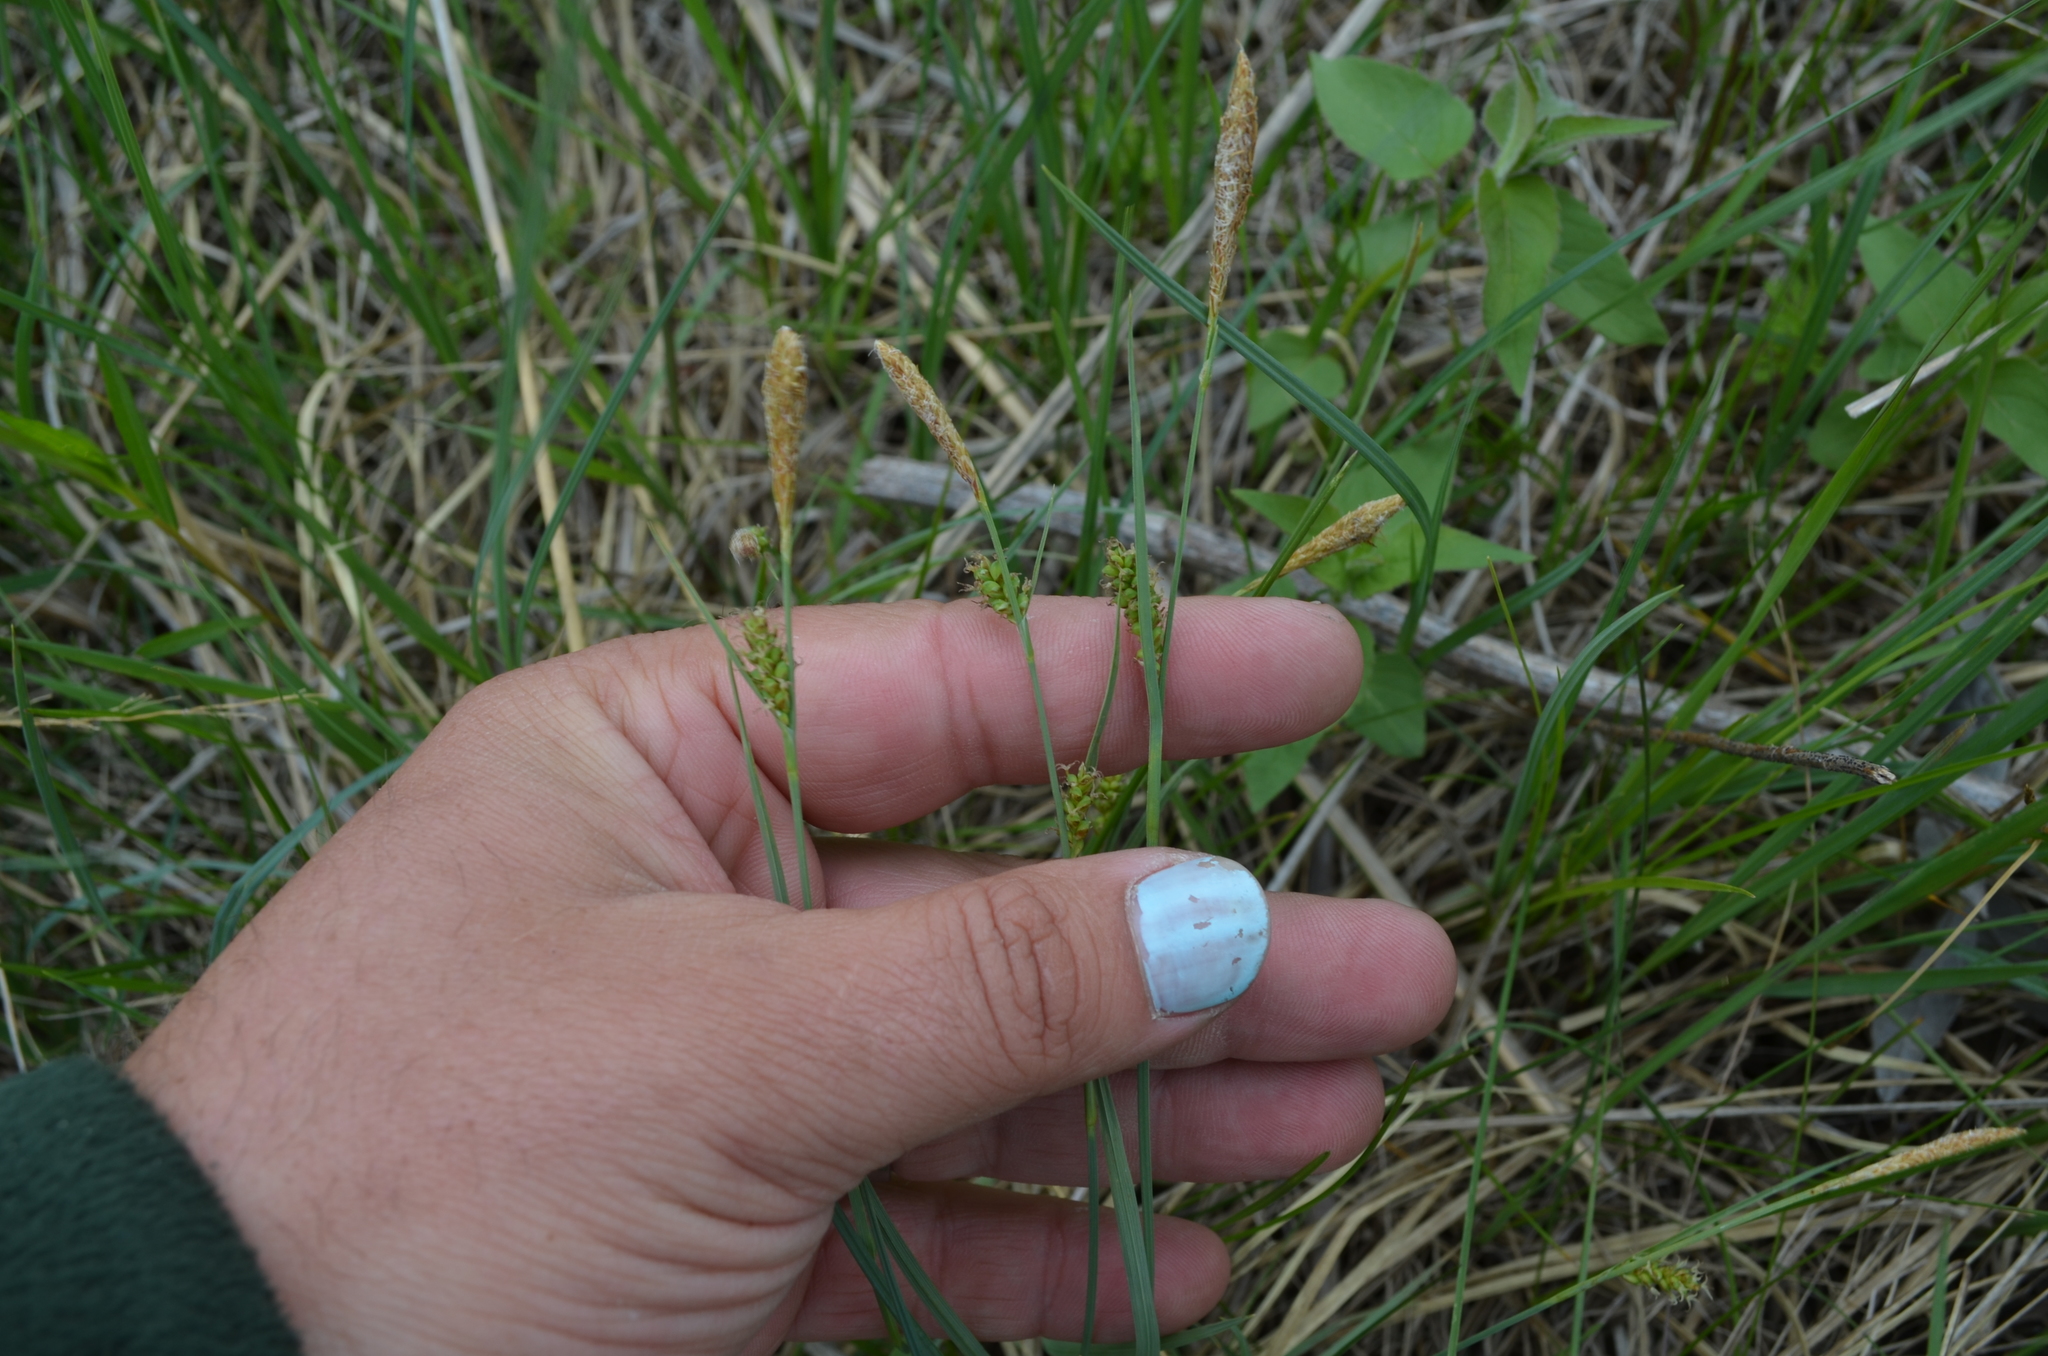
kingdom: Plantae
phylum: Tracheophyta
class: Liliopsida
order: Poales
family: Cyperaceae
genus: Carex
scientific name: Carex meadii
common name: Mead's sedge
